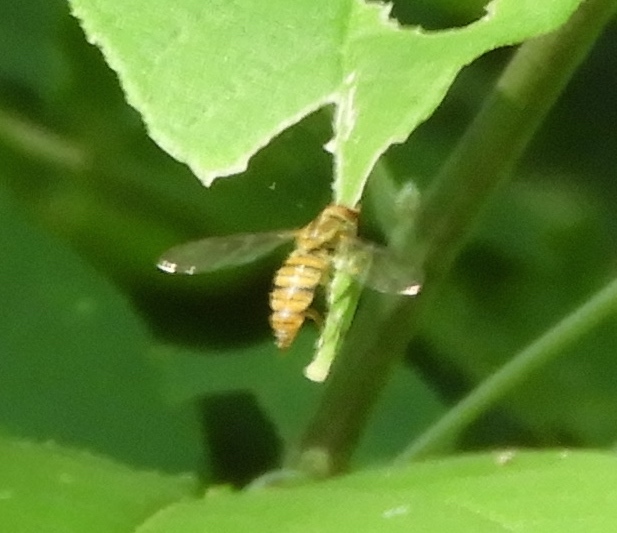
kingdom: Animalia
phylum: Arthropoda
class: Insecta
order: Diptera
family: Syrphidae
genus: Toxomerus
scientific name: Toxomerus politus
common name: Maize calligrapher
